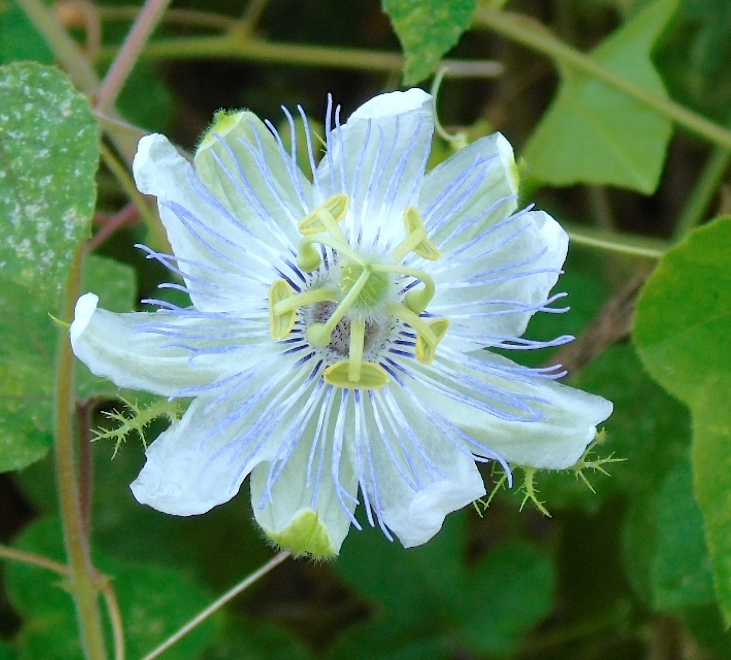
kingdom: Plantae
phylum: Tracheophyta
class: Magnoliopsida
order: Malpighiales
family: Passifloraceae
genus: Passiflora
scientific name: Passiflora foetida
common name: Fetid passionflower
